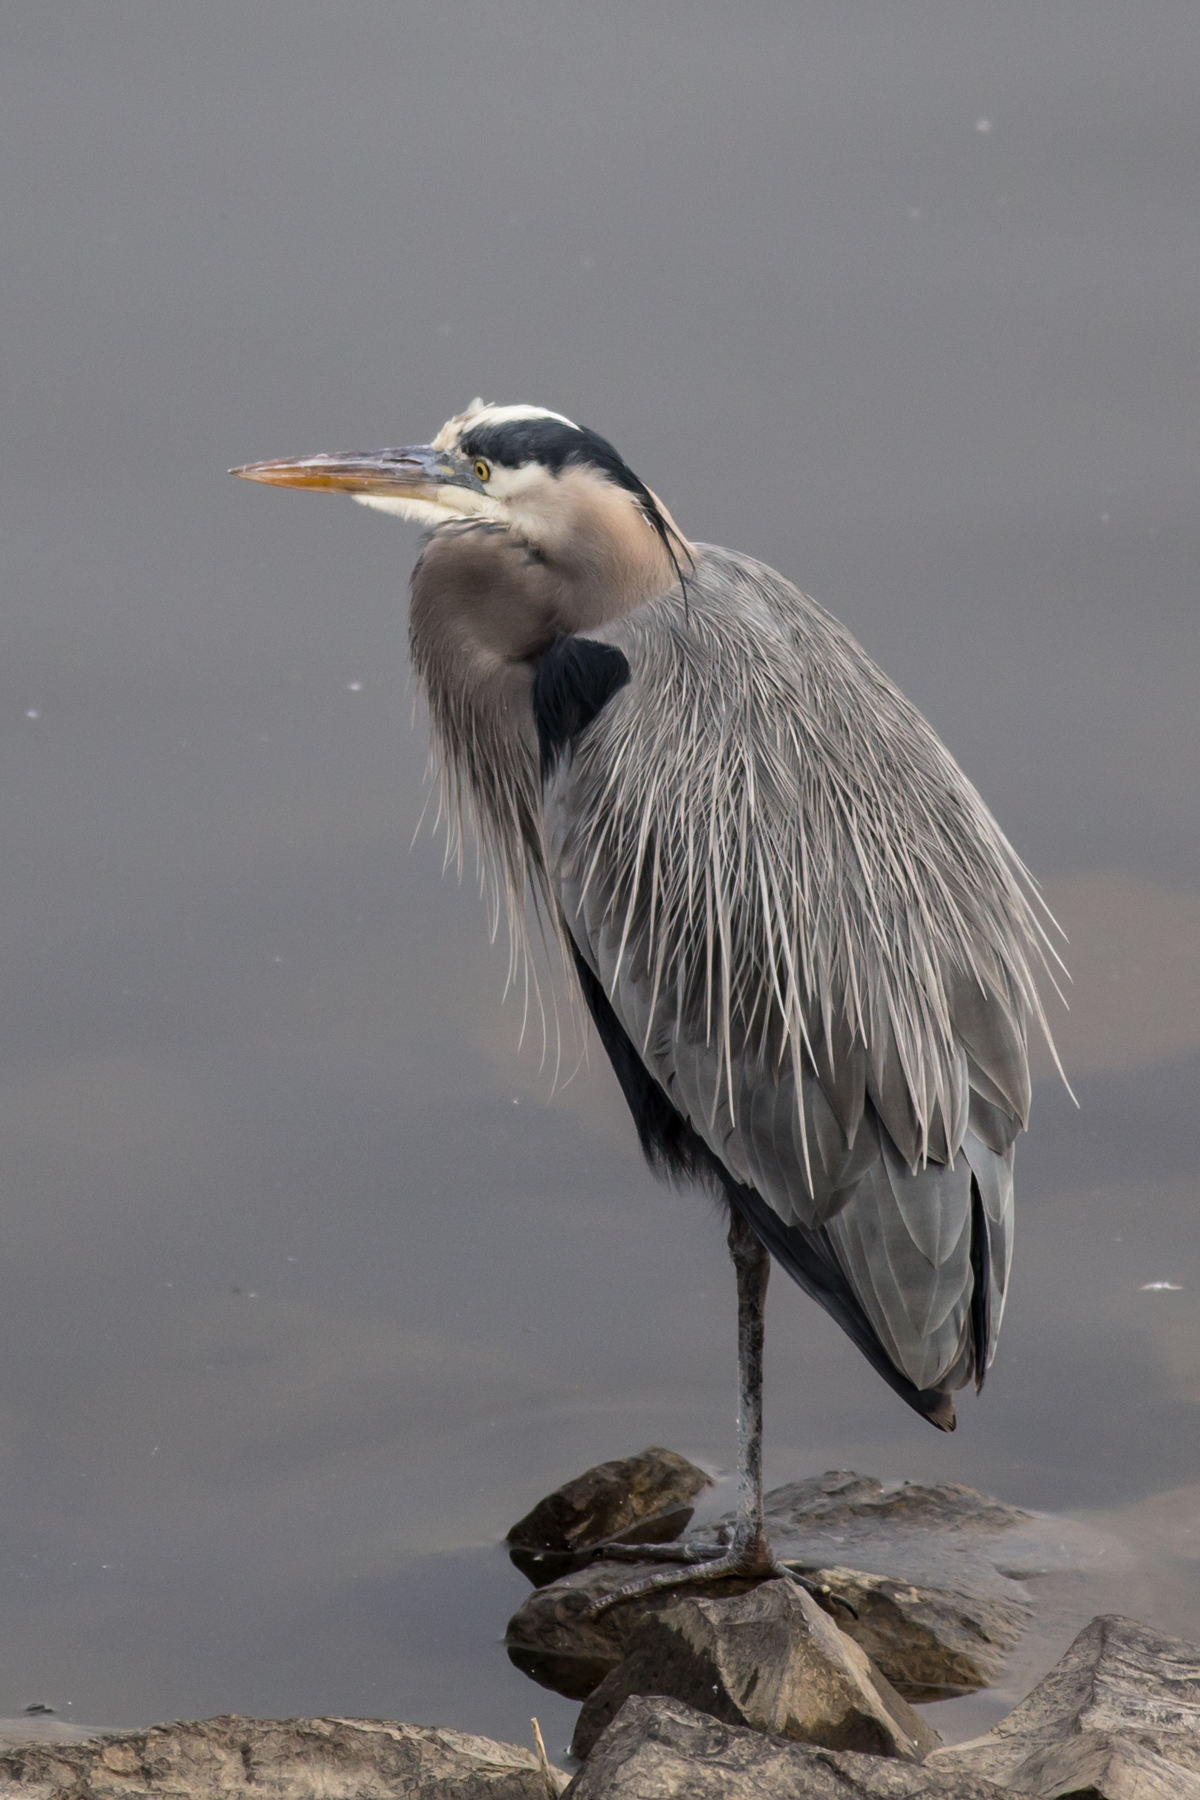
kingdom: Animalia
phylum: Chordata
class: Aves
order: Pelecaniformes
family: Ardeidae
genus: Ardea
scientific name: Ardea herodias
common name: Great blue heron
